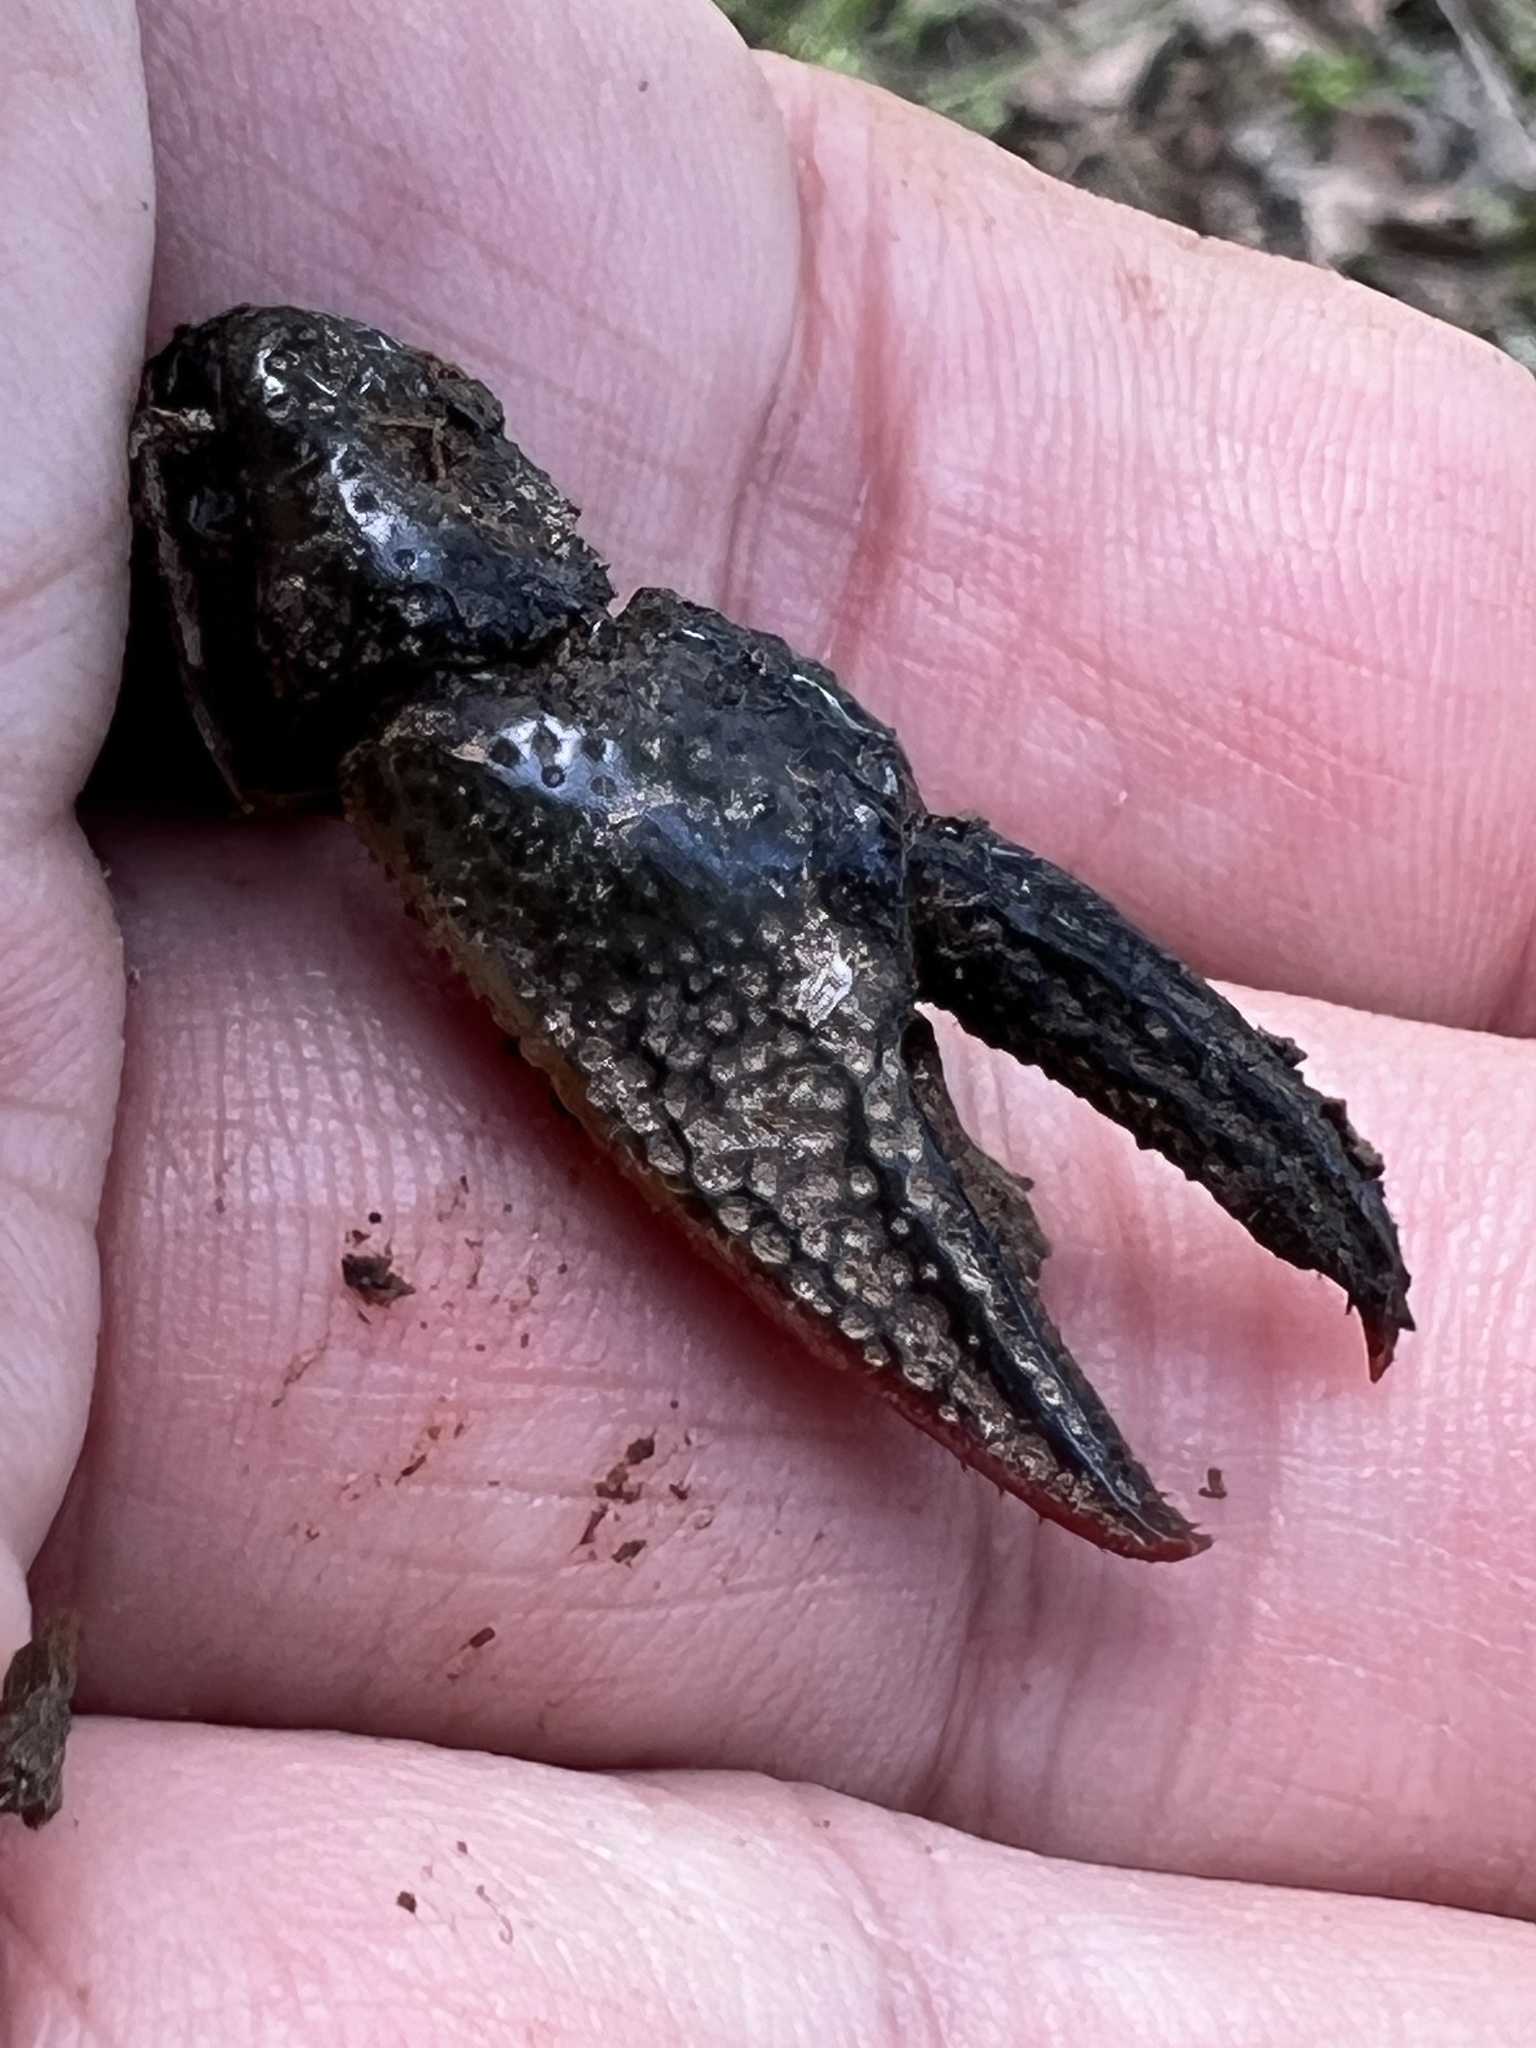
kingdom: Animalia
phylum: Arthropoda
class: Malacostraca
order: Decapoda
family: Cambaridae
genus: Lacunicambarus
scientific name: Lacunicambarus diogenes
